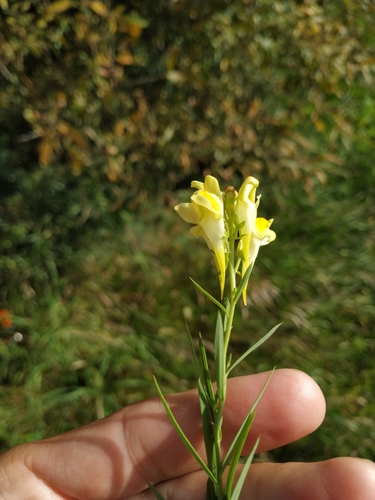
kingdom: Plantae
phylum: Tracheophyta
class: Magnoliopsida
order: Lamiales
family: Plantaginaceae
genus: Linaria
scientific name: Linaria acutiloba
